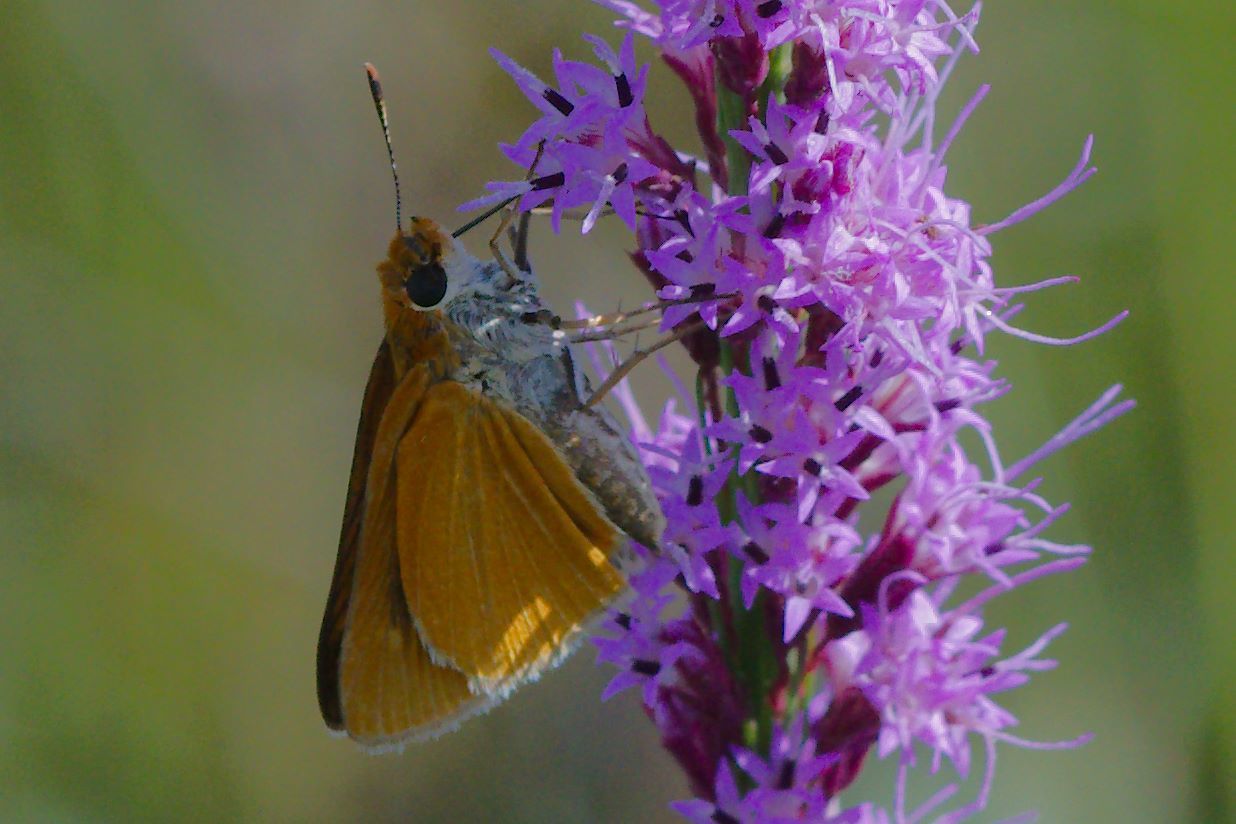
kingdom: Animalia
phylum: Arthropoda
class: Insecta
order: Lepidoptera
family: Hesperiidae
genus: Euphyes
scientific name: Euphyes arpa
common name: Palmetto skipper
